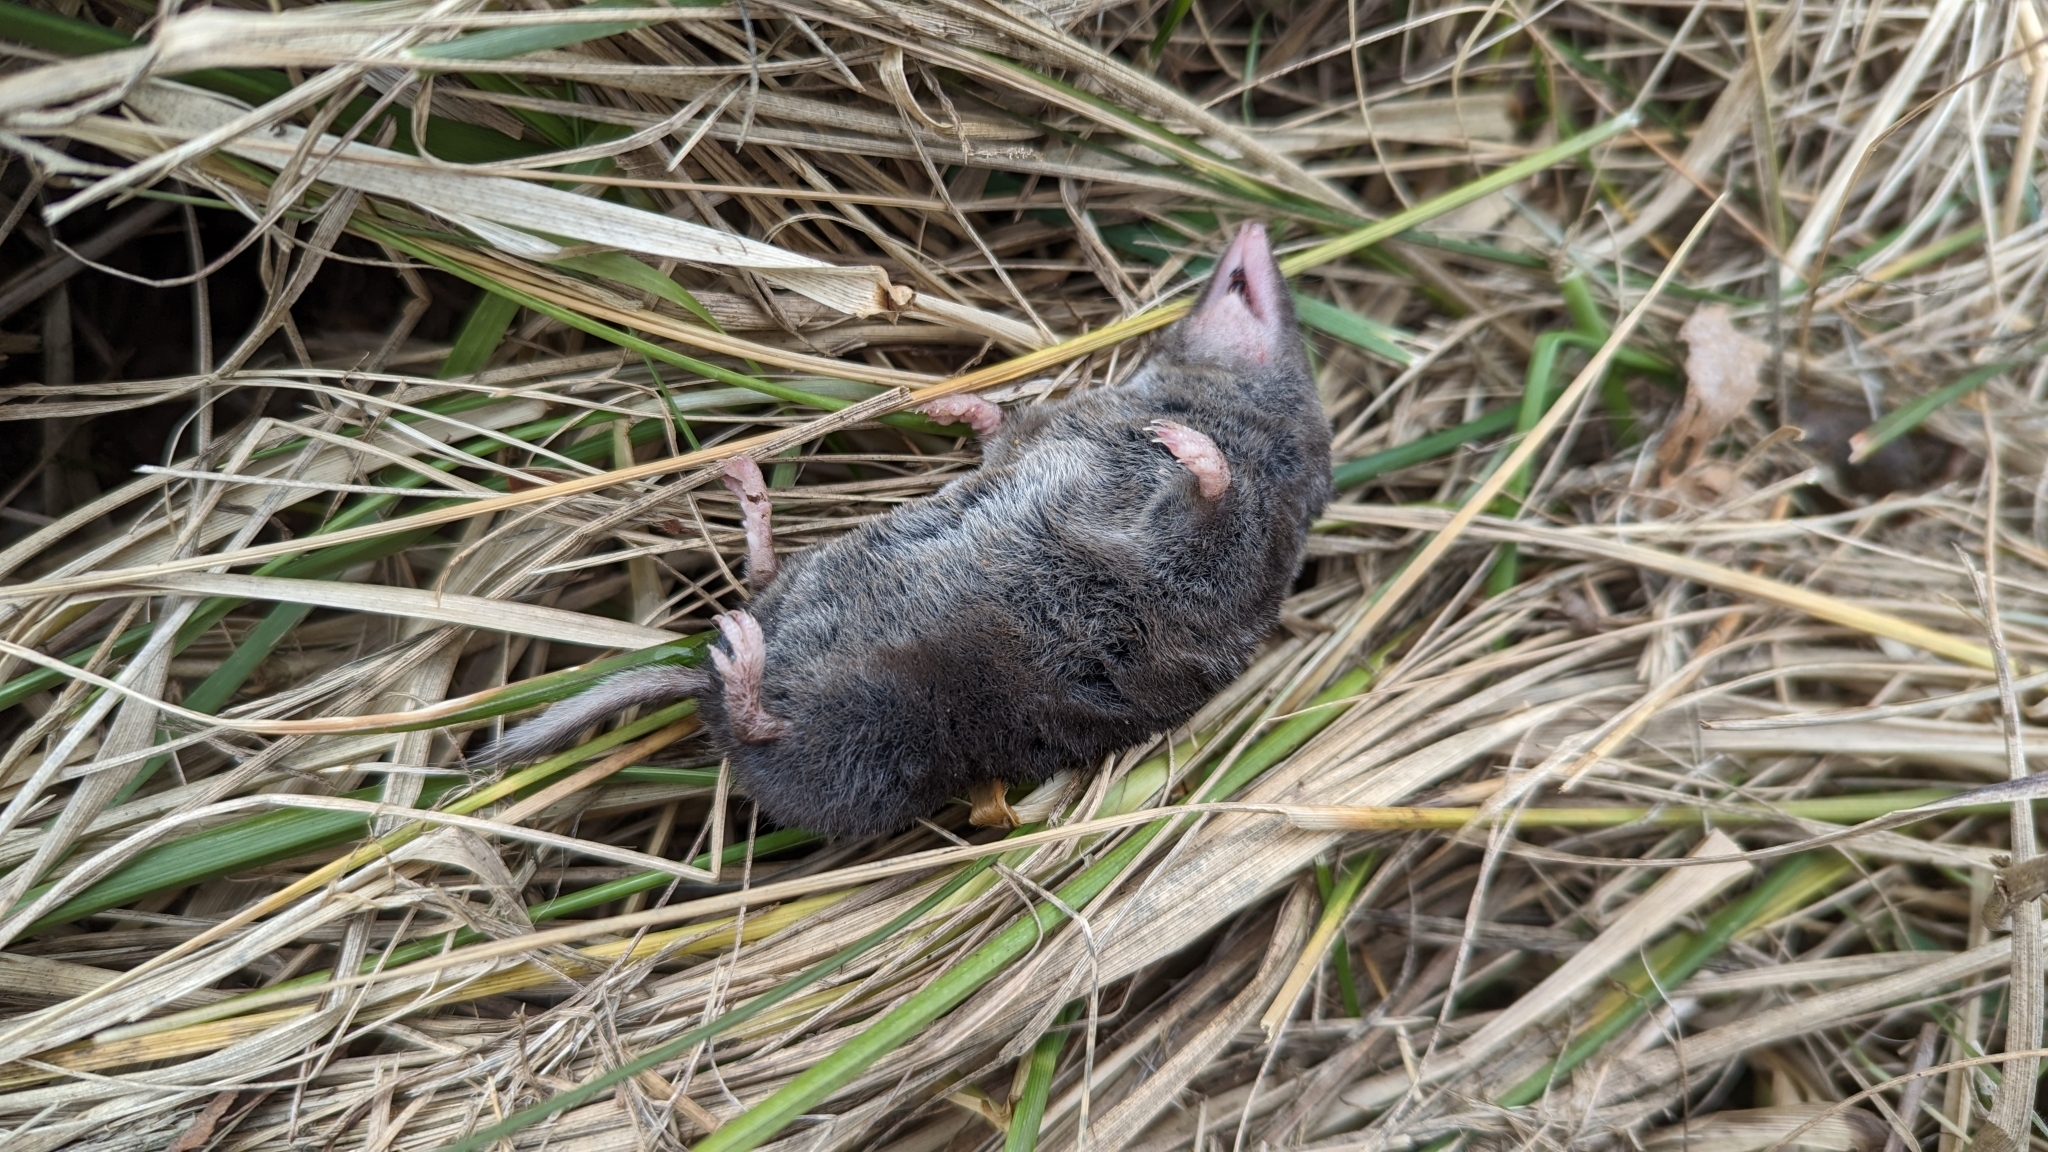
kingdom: Animalia
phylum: Chordata
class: Mammalia
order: Soricomorpha
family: Soricidae
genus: Blarina
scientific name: Blarina brevicauda
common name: Northern short-tailed shrew
